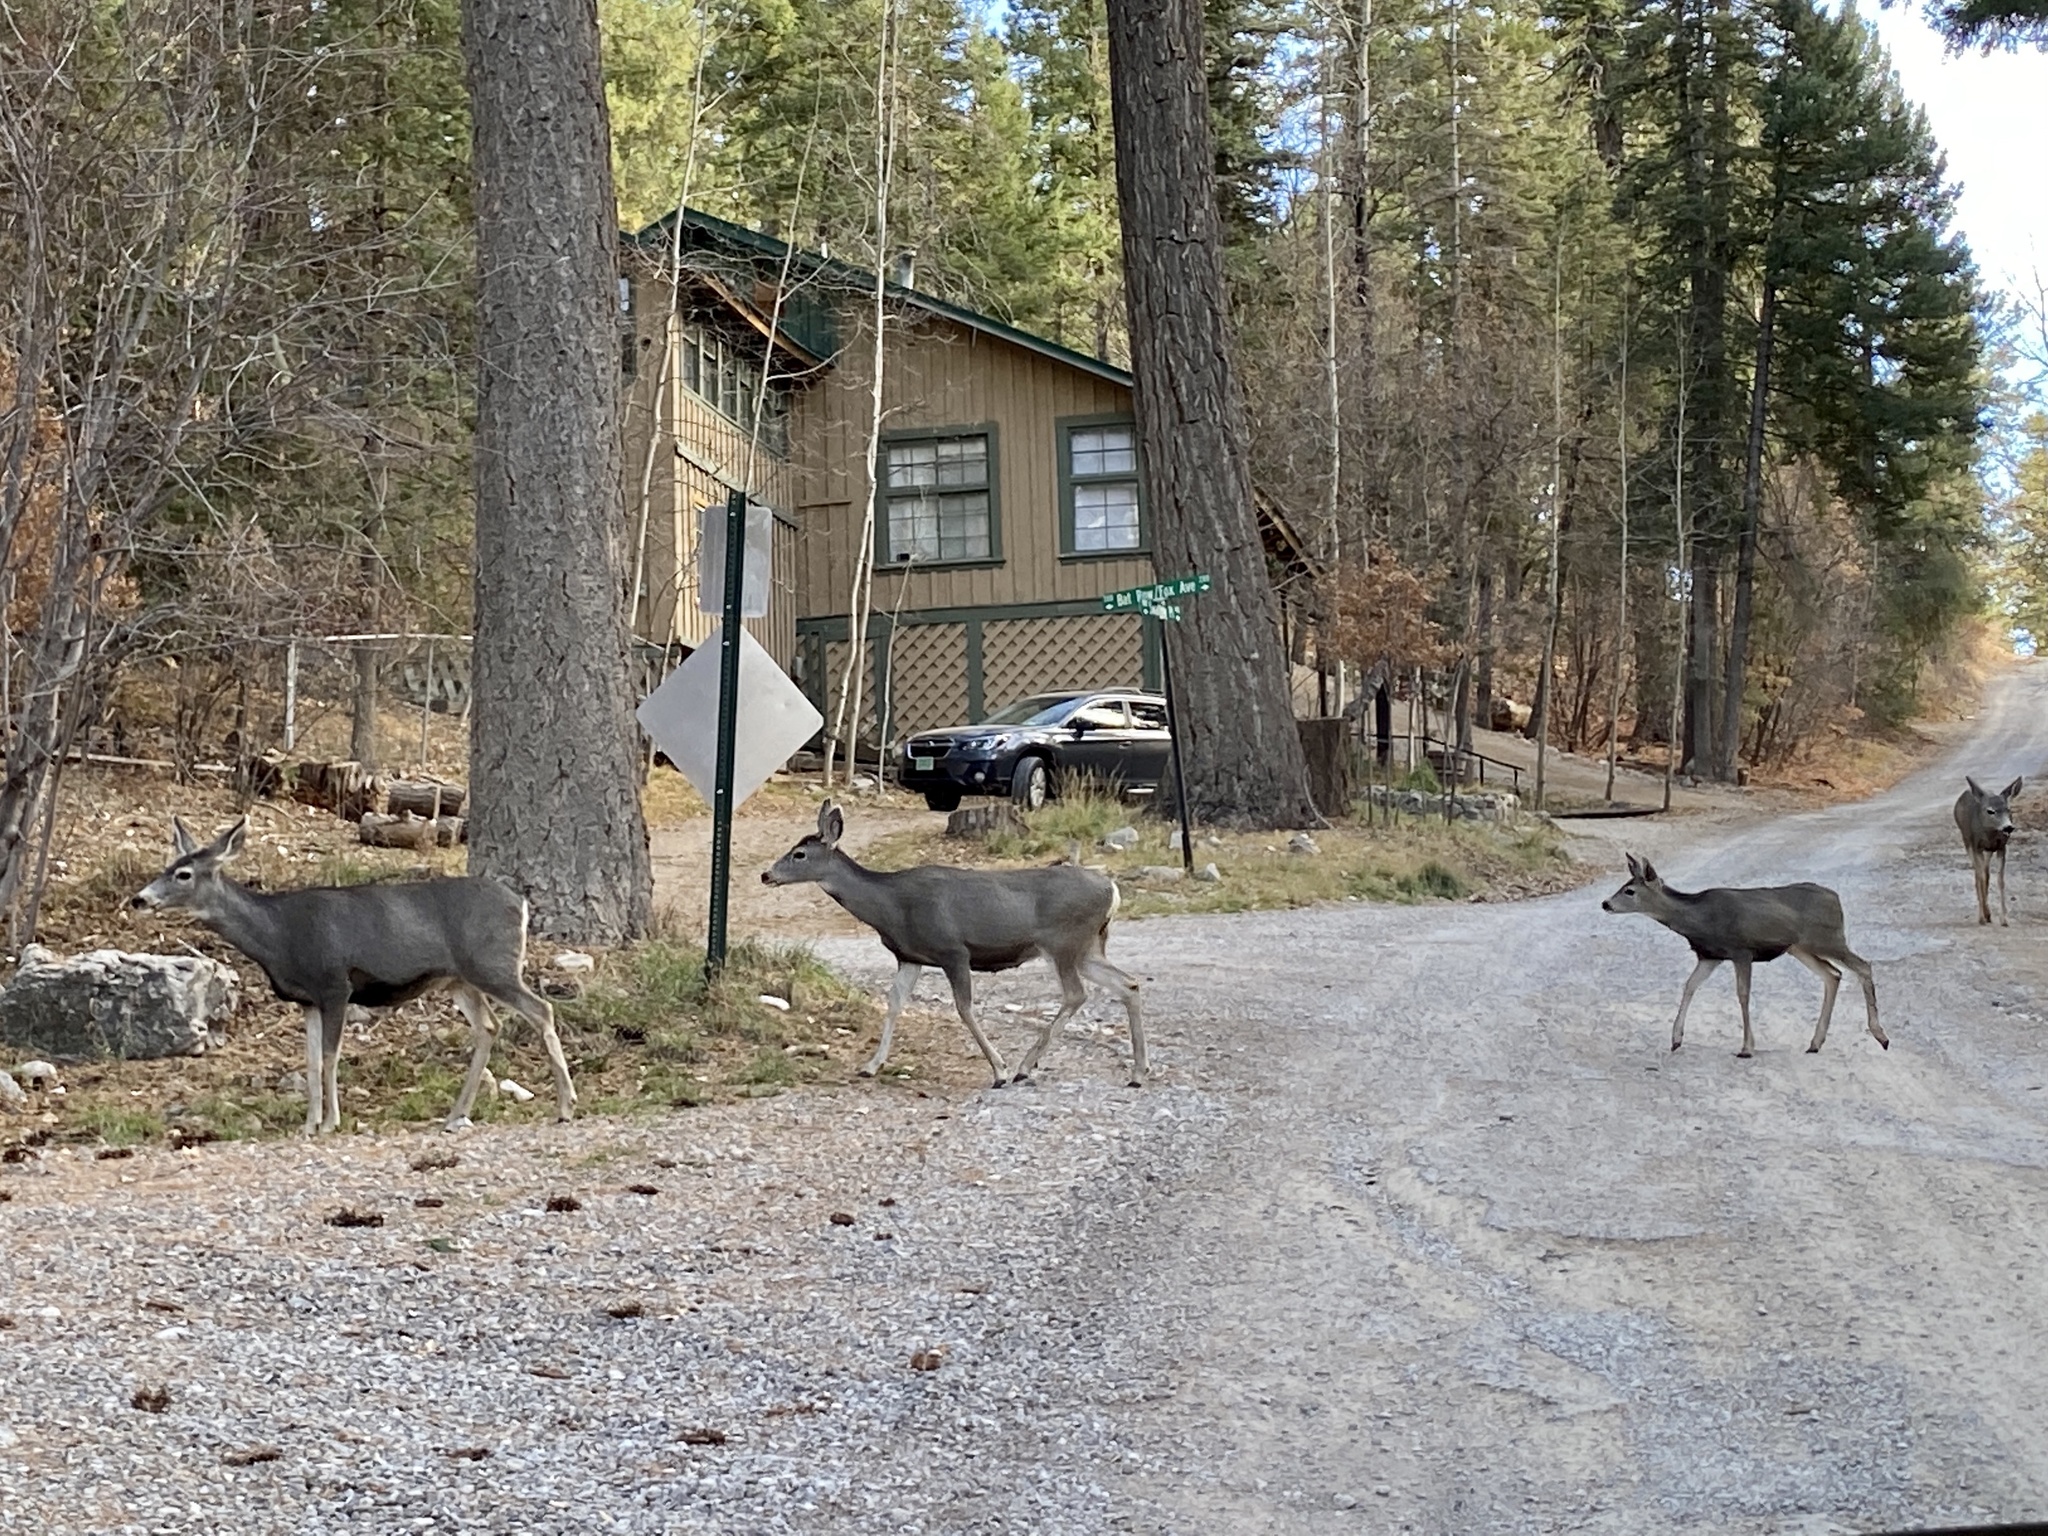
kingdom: Animalia
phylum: Chordata
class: Mammalia
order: Artiodactyla
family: Cervidae
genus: Odocoileus
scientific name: Odocoileus hemionus
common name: Mule deer
